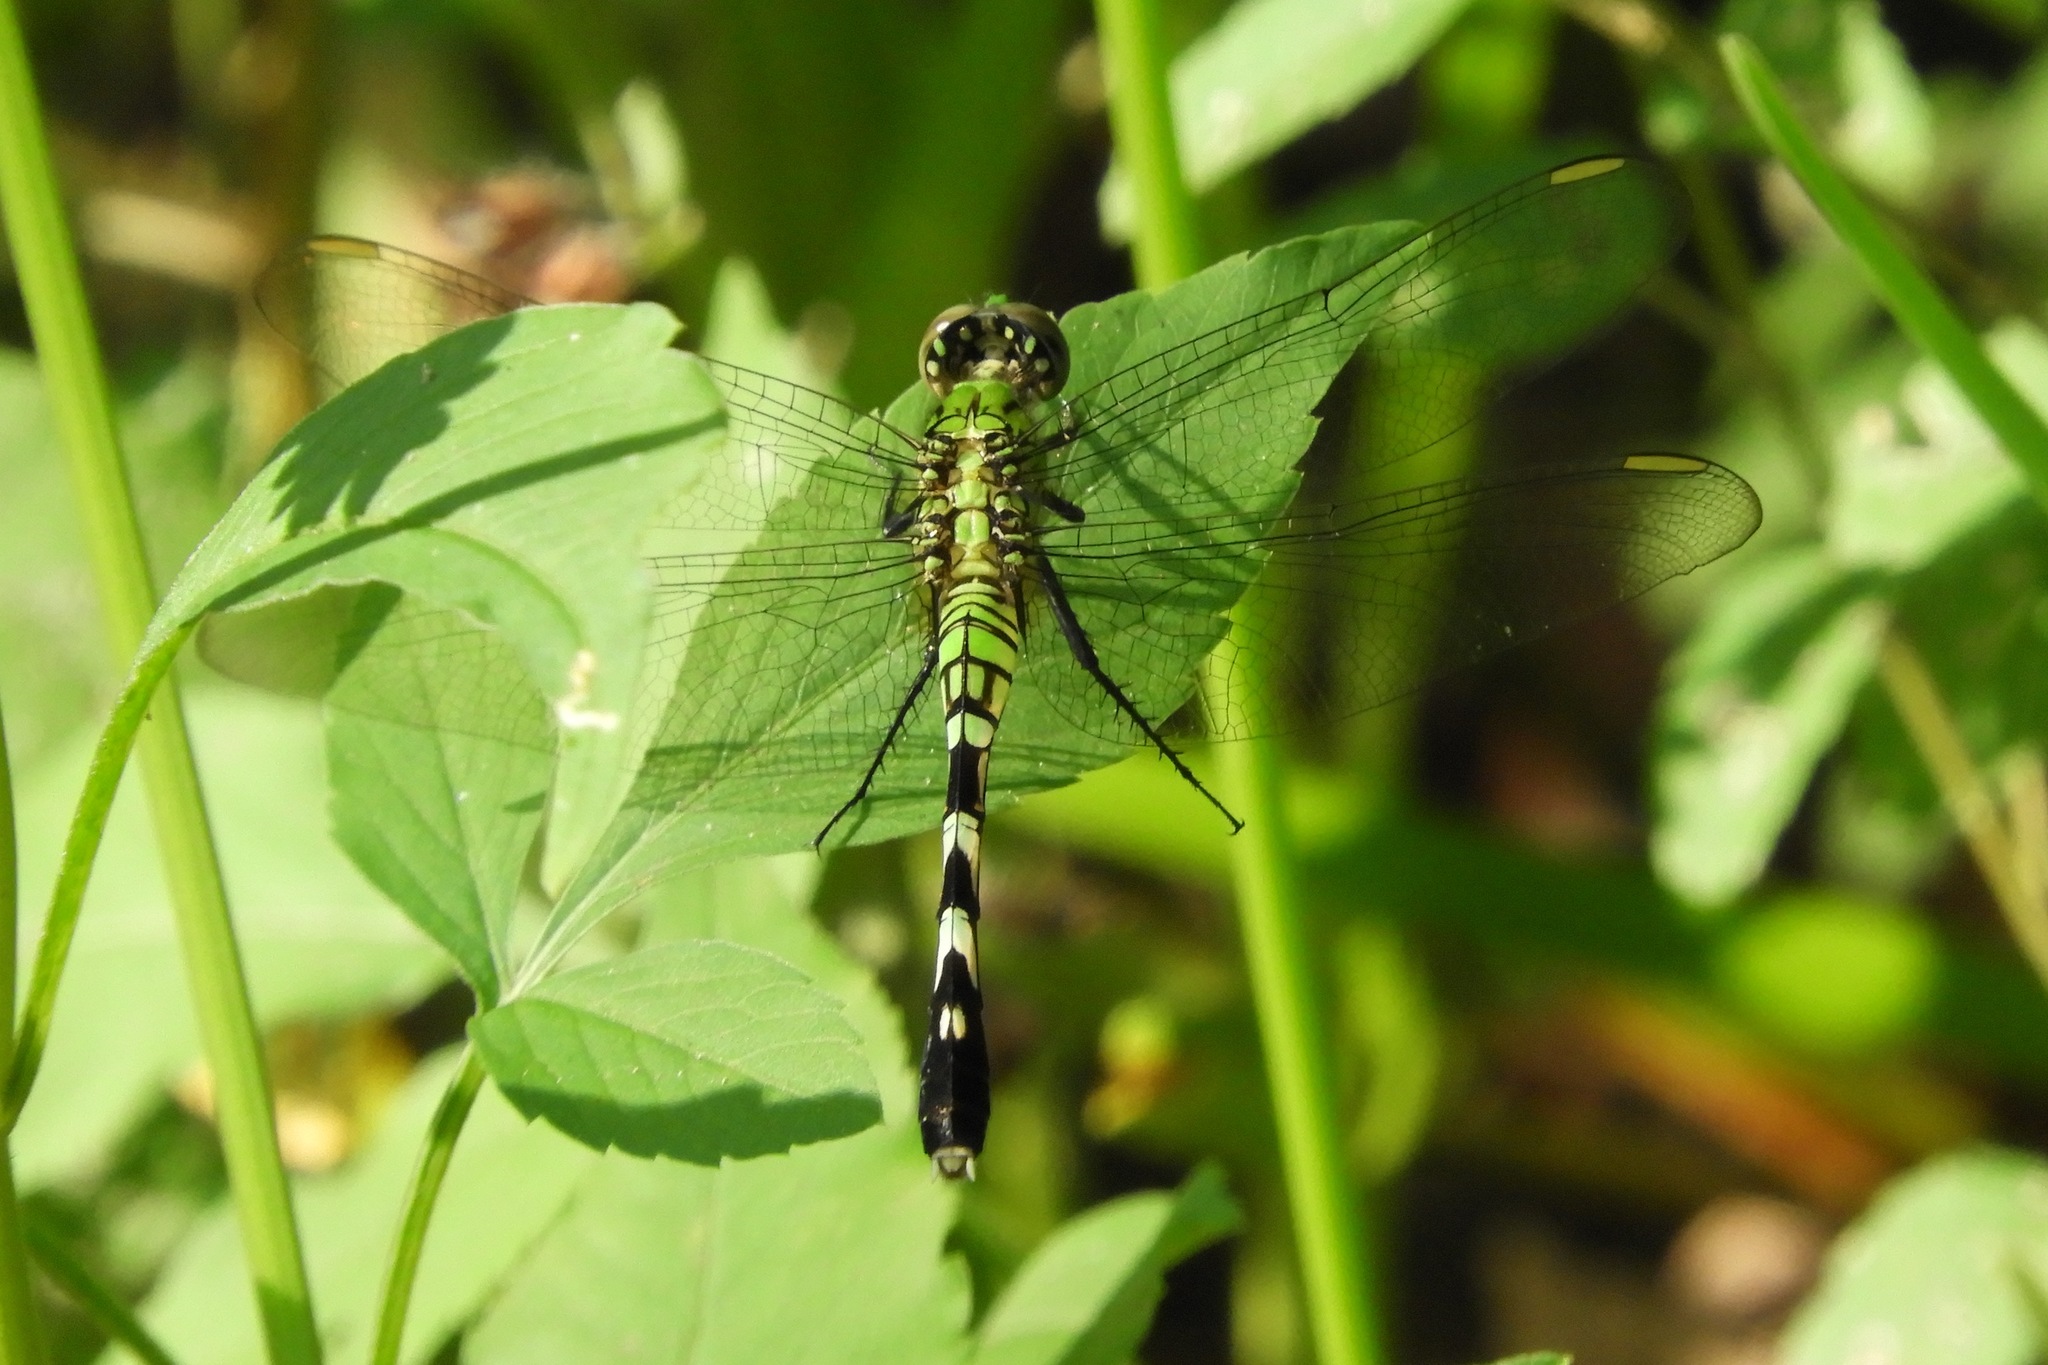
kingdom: Animalia
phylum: Arthropoda
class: Insecta
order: Odonata
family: Libellulidae
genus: Erythemis
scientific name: Erythemis simplicicollis
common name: Eastern pondhawk
